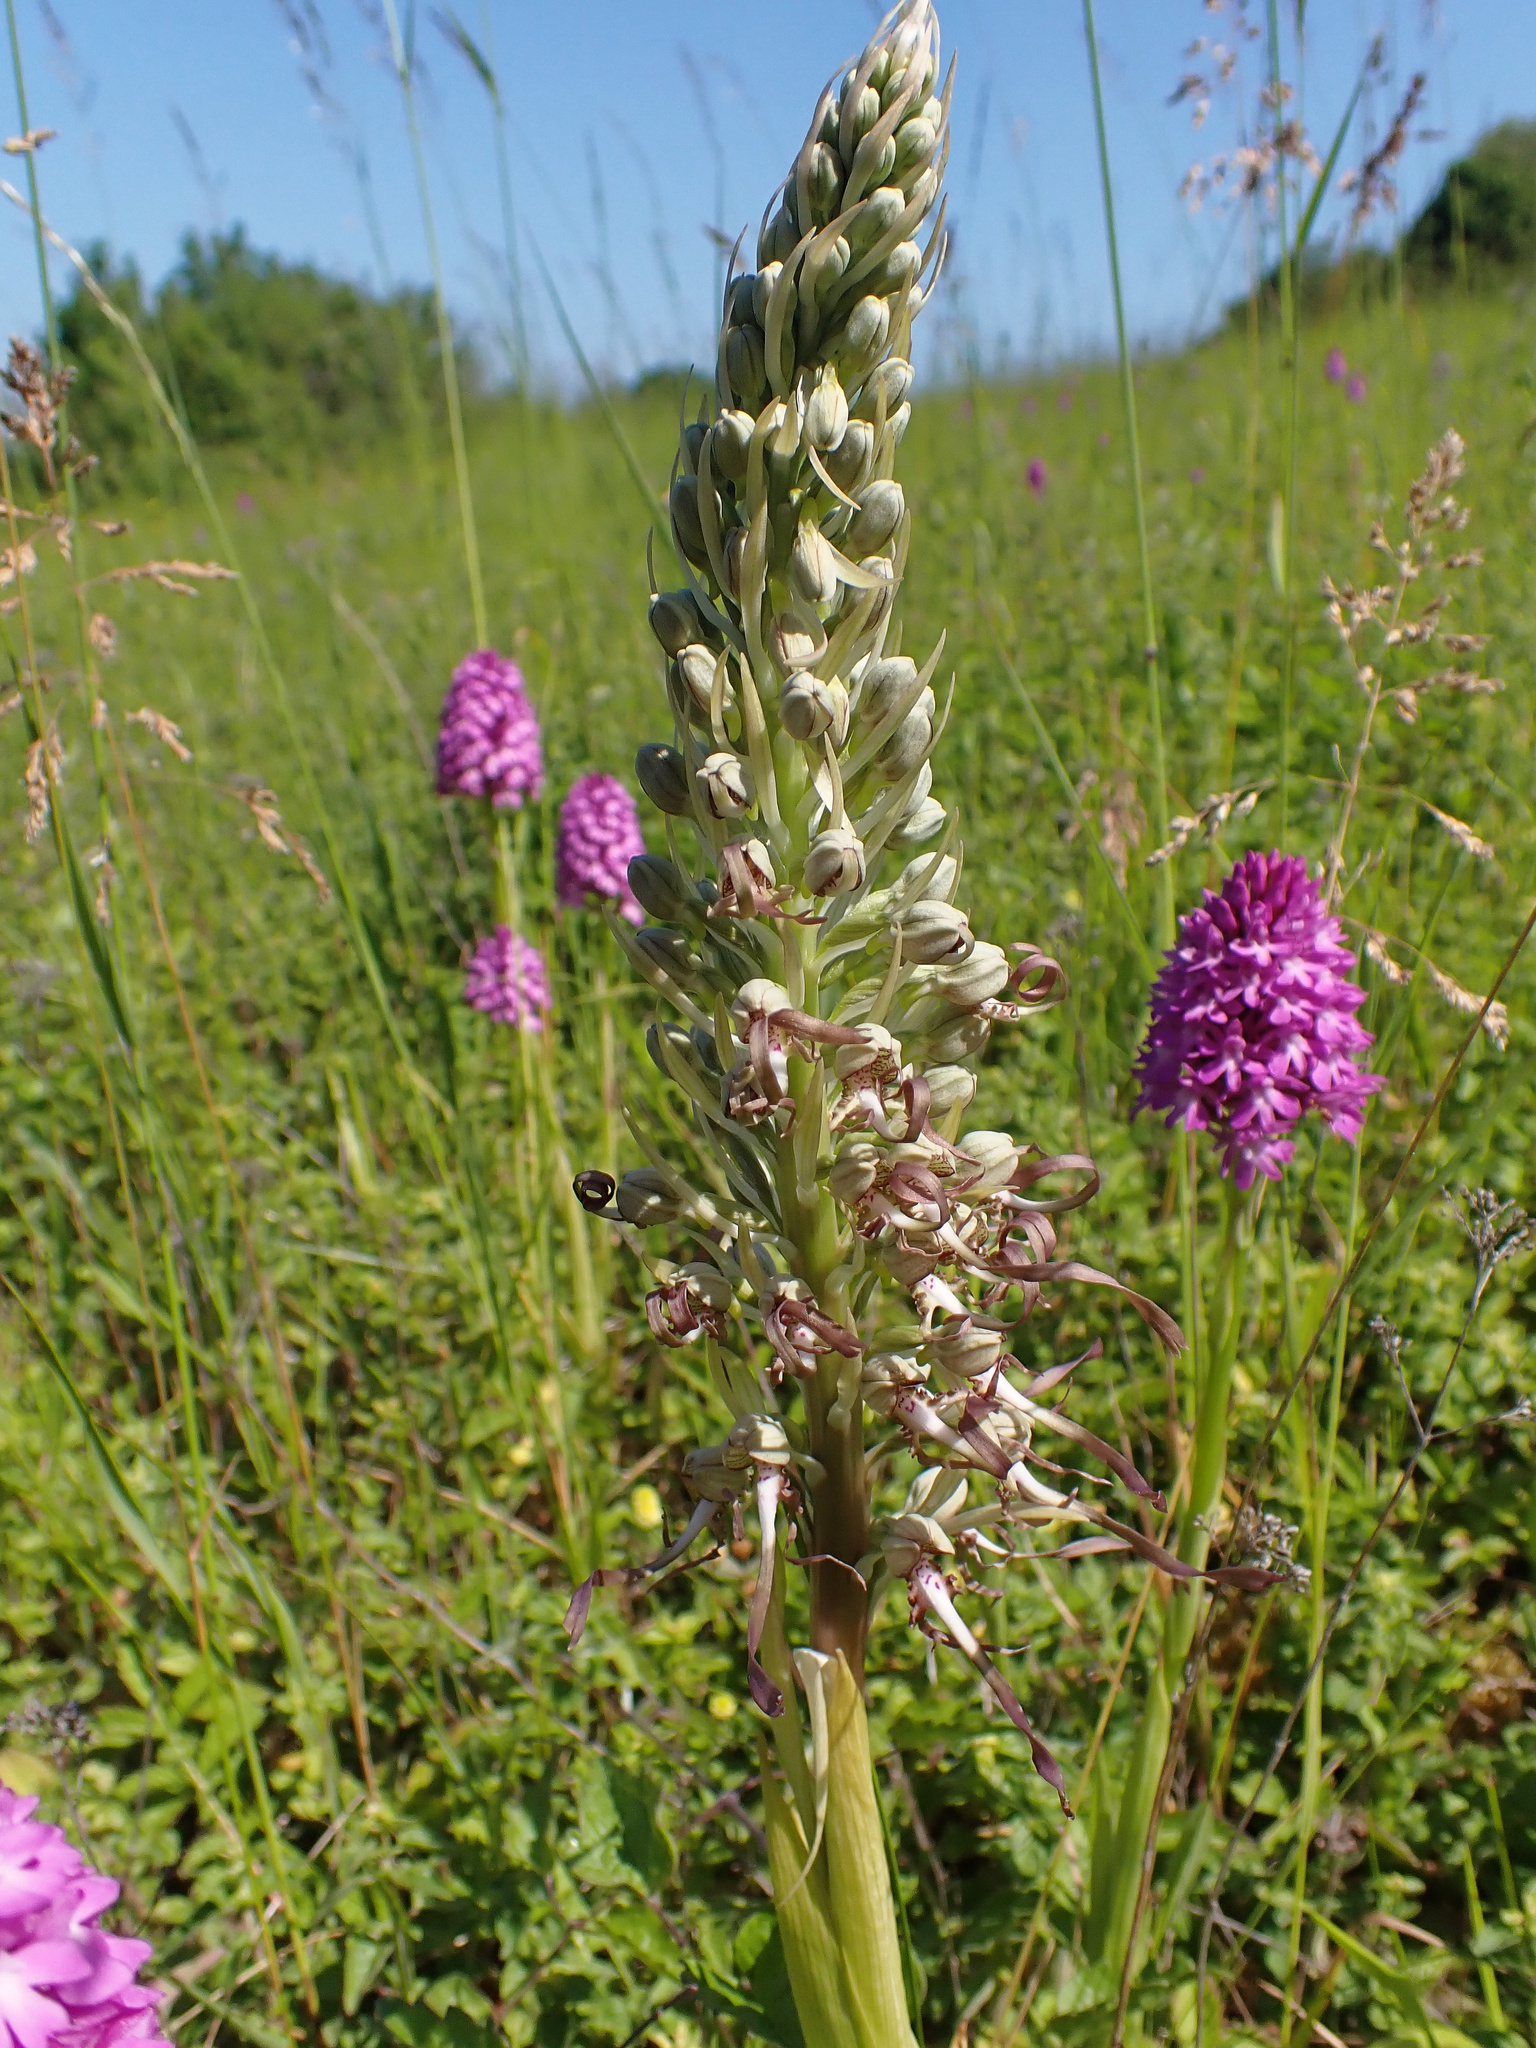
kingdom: Plantae
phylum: Tracheophyta
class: Liliopsida
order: Asparagales
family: Orchidaceae
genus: Himantoglossum
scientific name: Himantoglossum hircinum
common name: Lizard orchid
